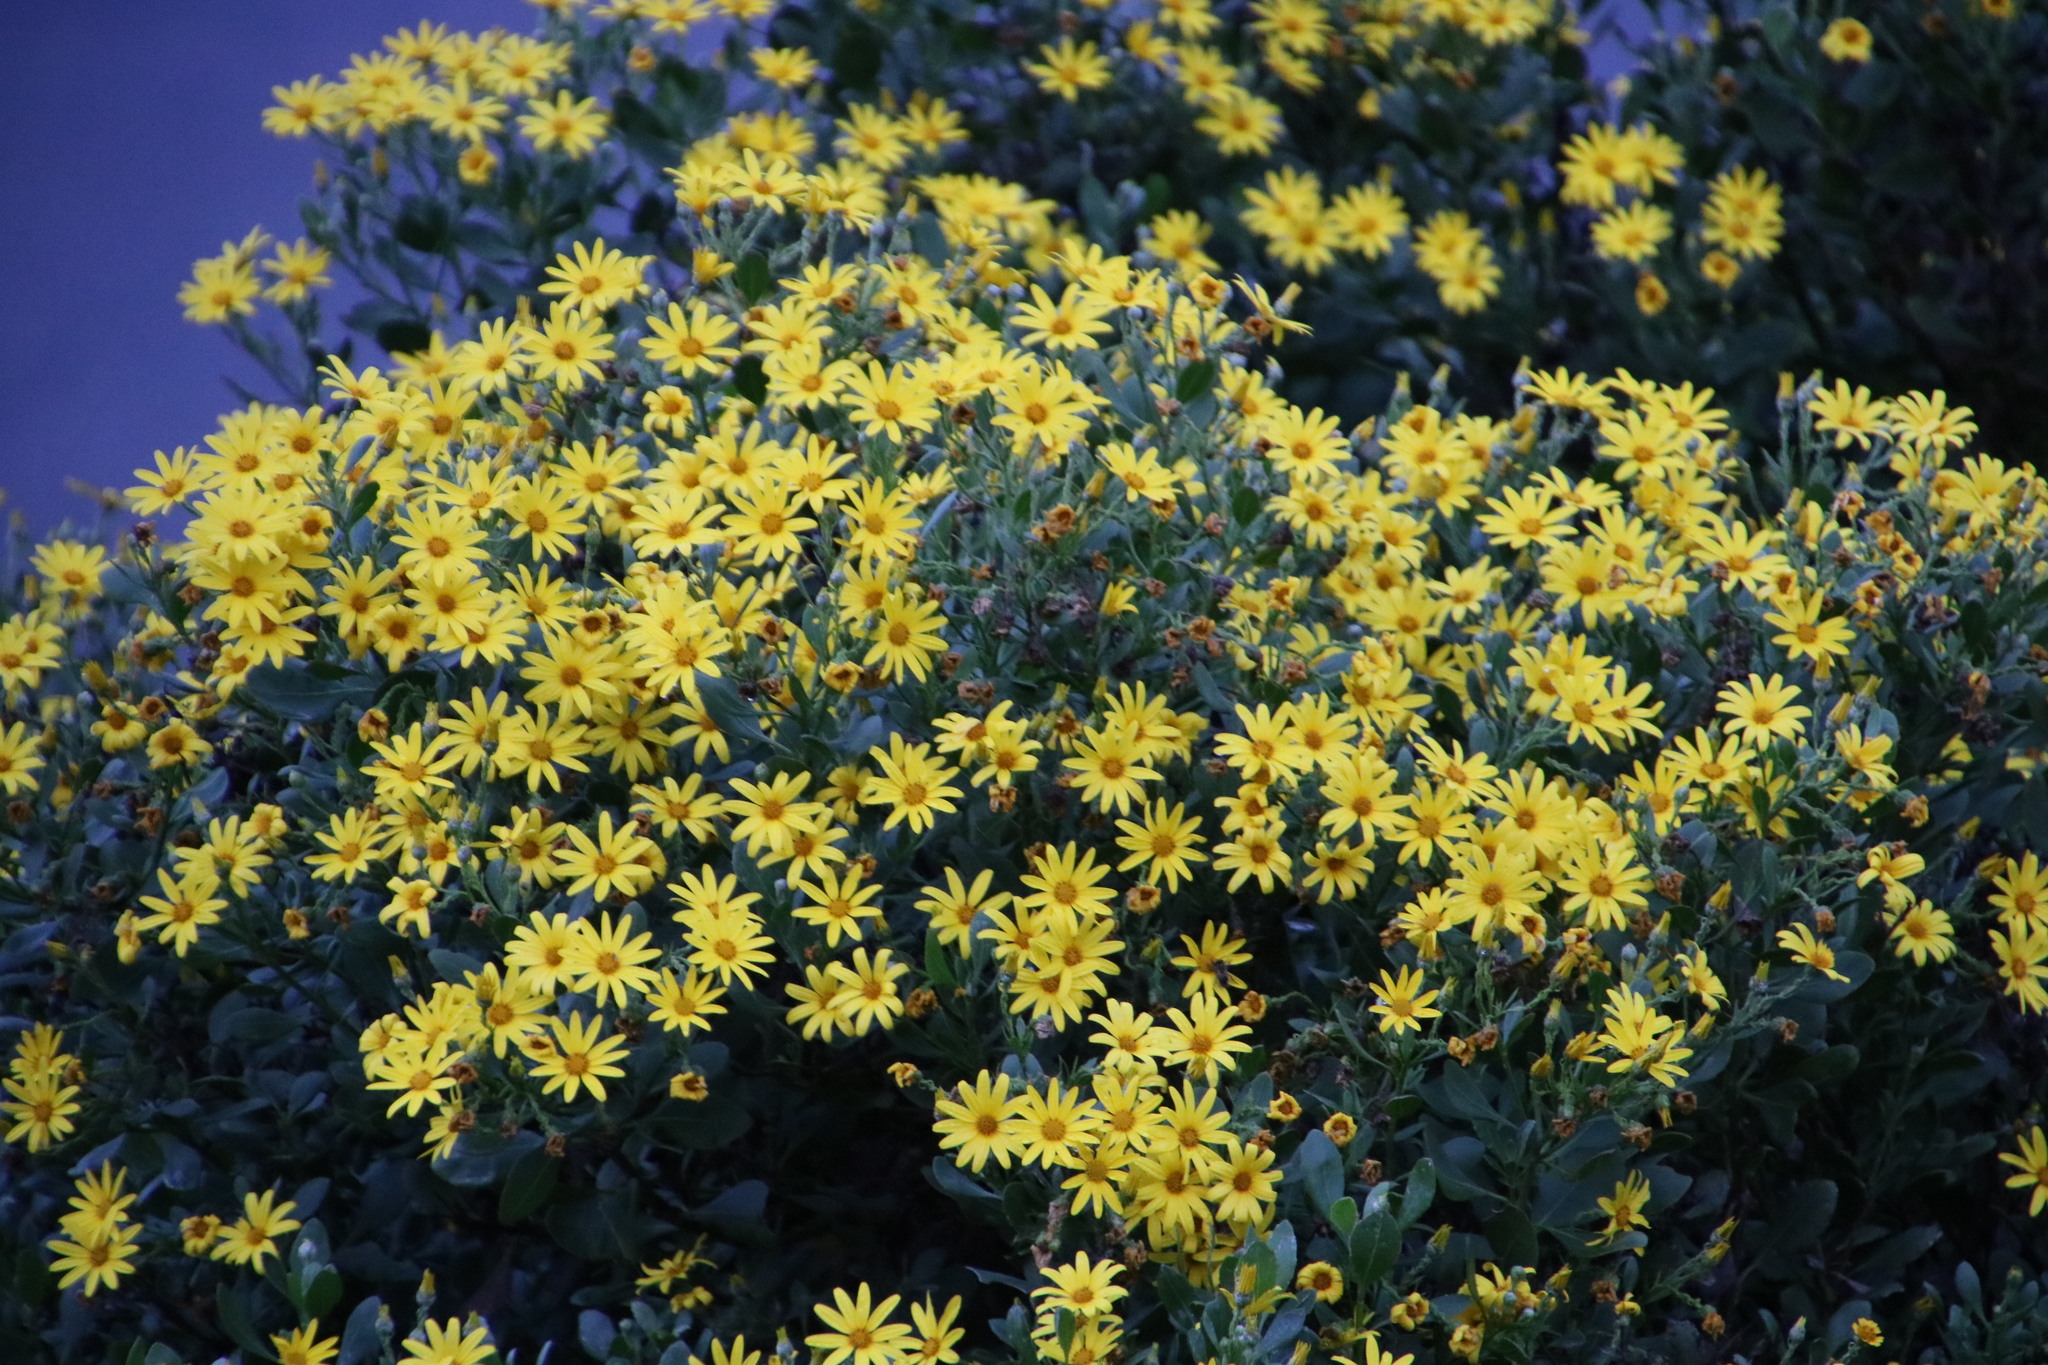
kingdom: Plantae
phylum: Tracheophyta
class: Magnoliopsida
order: Asterales
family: Asteraceae
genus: Osteospermum
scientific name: Osteospermum moniliferum
